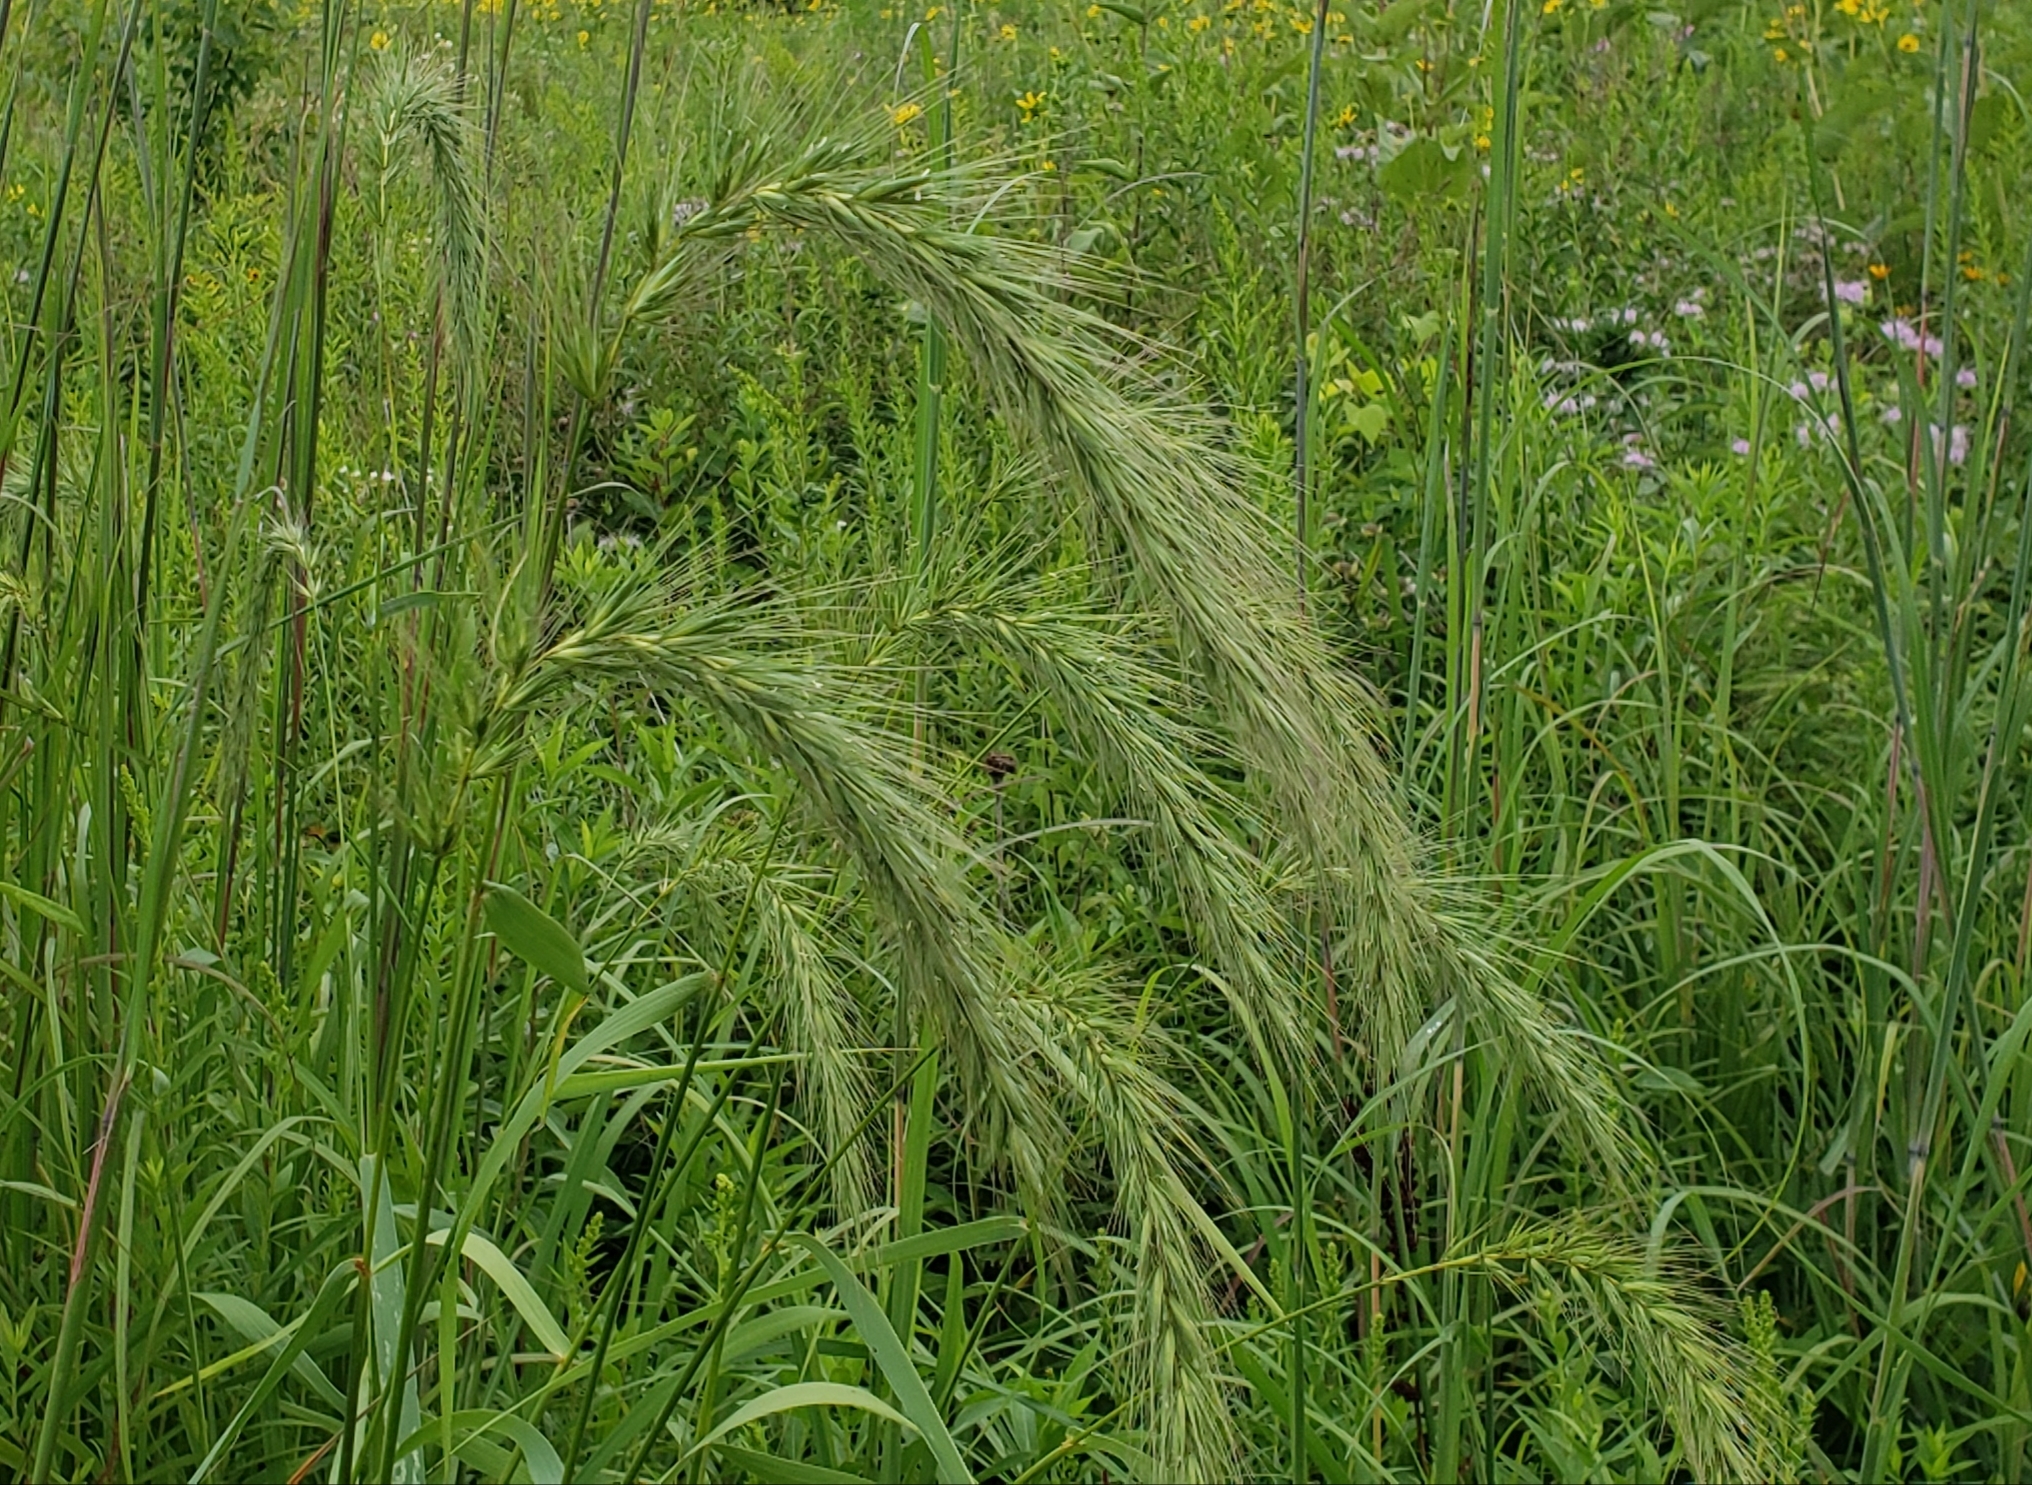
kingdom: Plantae
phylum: Tracheophyta
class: Liliopsida
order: Poales
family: Poaceae
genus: Elymus
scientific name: Elymus canadensis
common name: Canada wild rye
